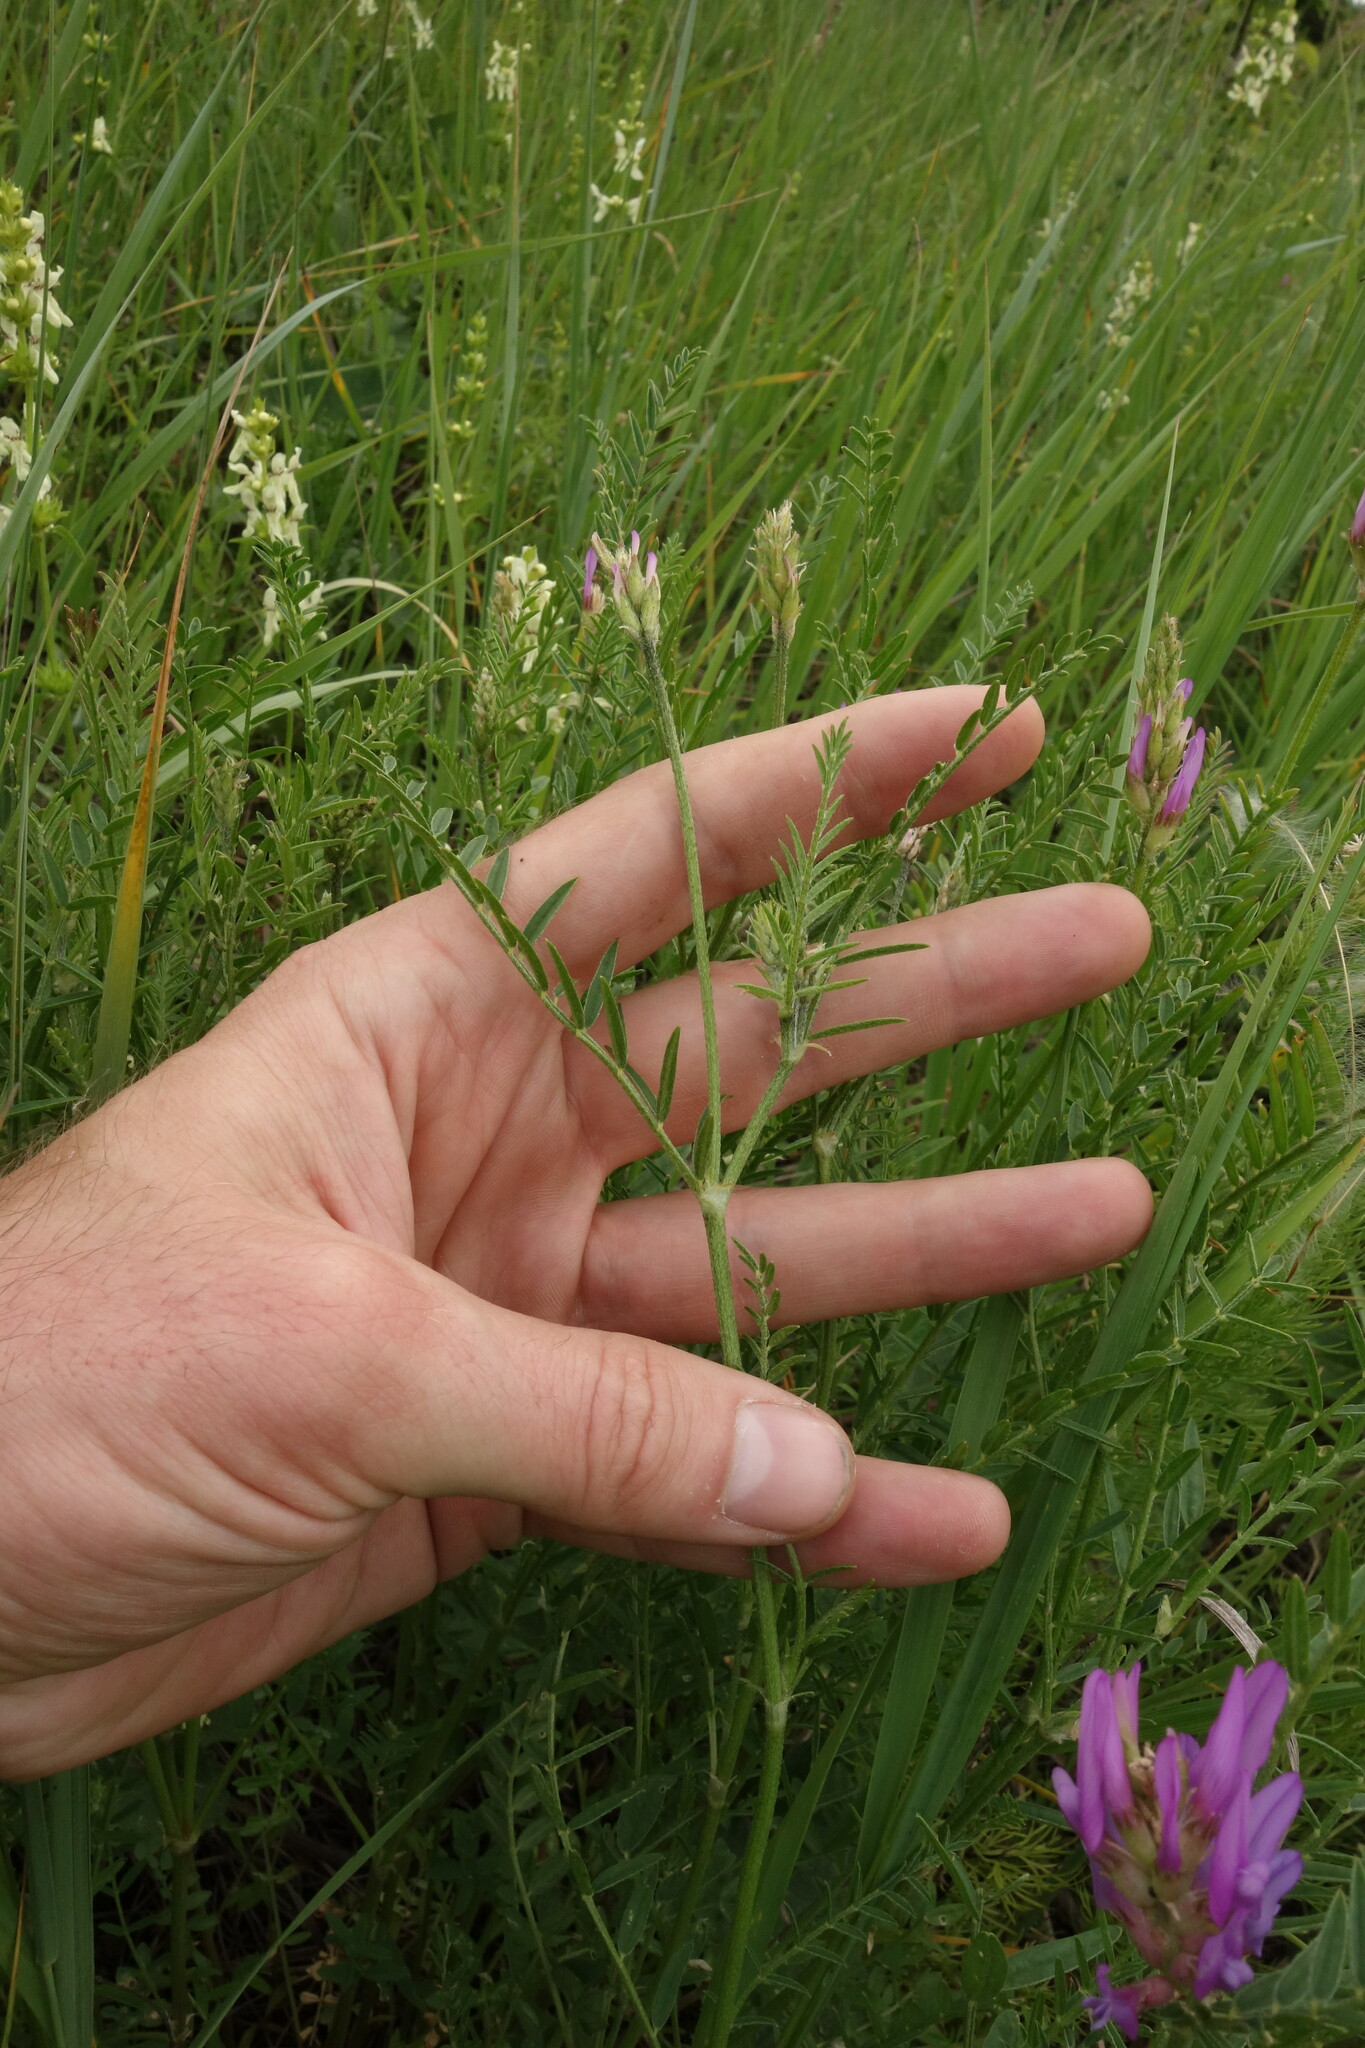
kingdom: Plantae
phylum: Tracheophyta
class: Magnoliopsida
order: Fabales
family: Fabaceae
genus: Astragalus
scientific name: Astragalus onobrychis
